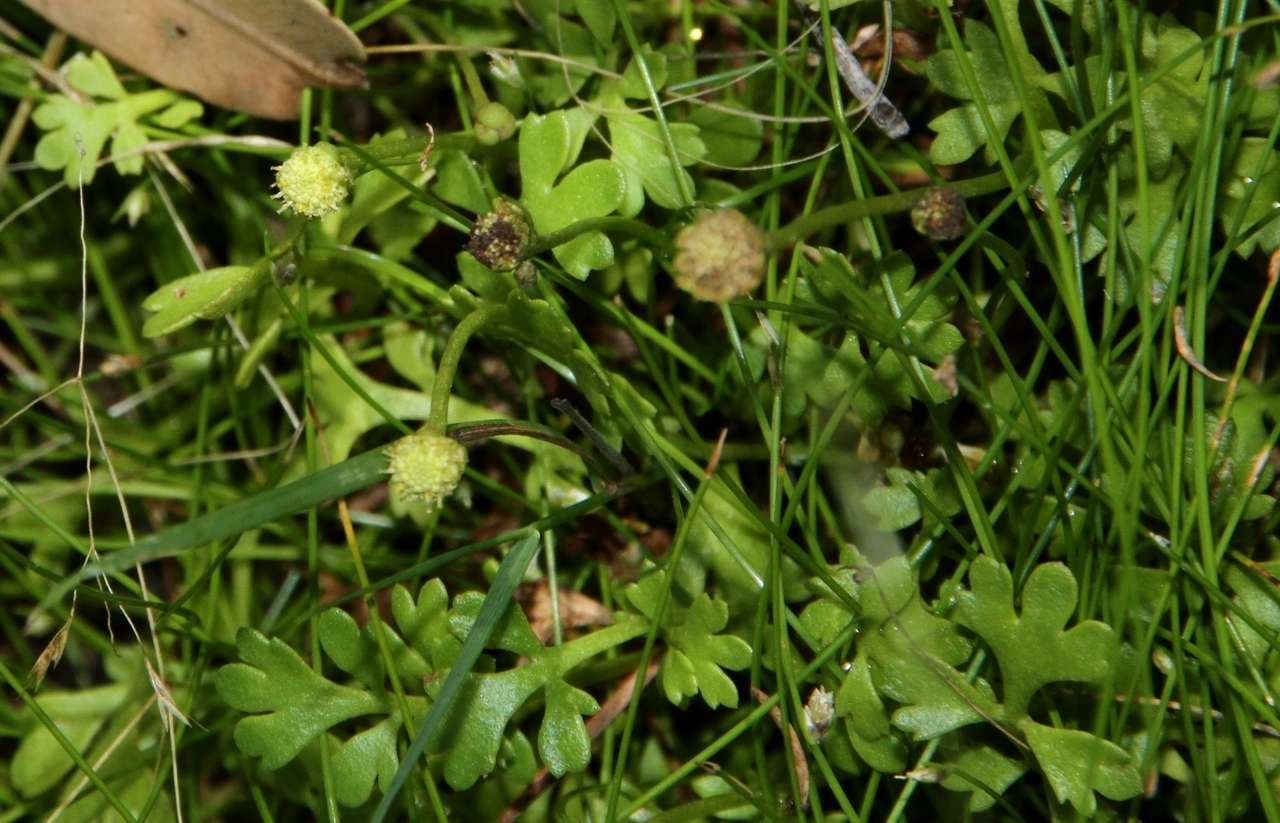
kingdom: Plantae
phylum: Tracheophyta
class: Magnoliopsida
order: Asterales
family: Asteraceae
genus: Leptinella
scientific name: Leptinella longipes
